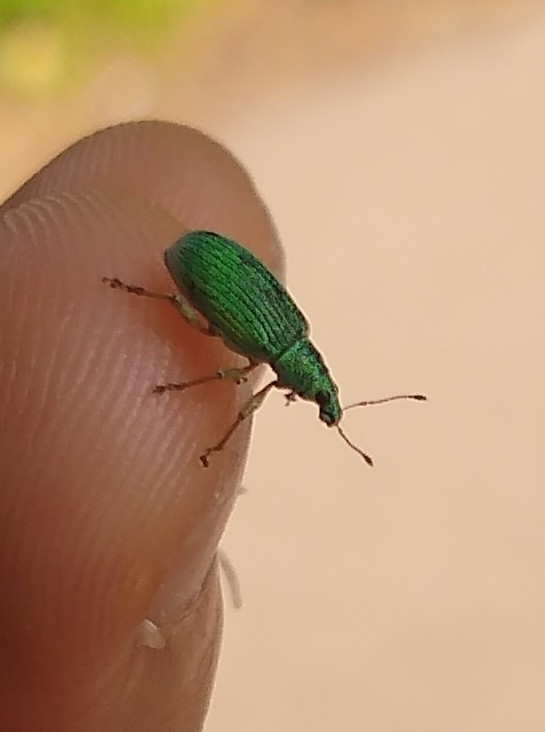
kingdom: Animalia
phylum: Arthropoda
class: Insecta
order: Coleoptera
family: Curculionidae
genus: Polydrusus
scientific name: Polydrusus formosus
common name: Weevil
